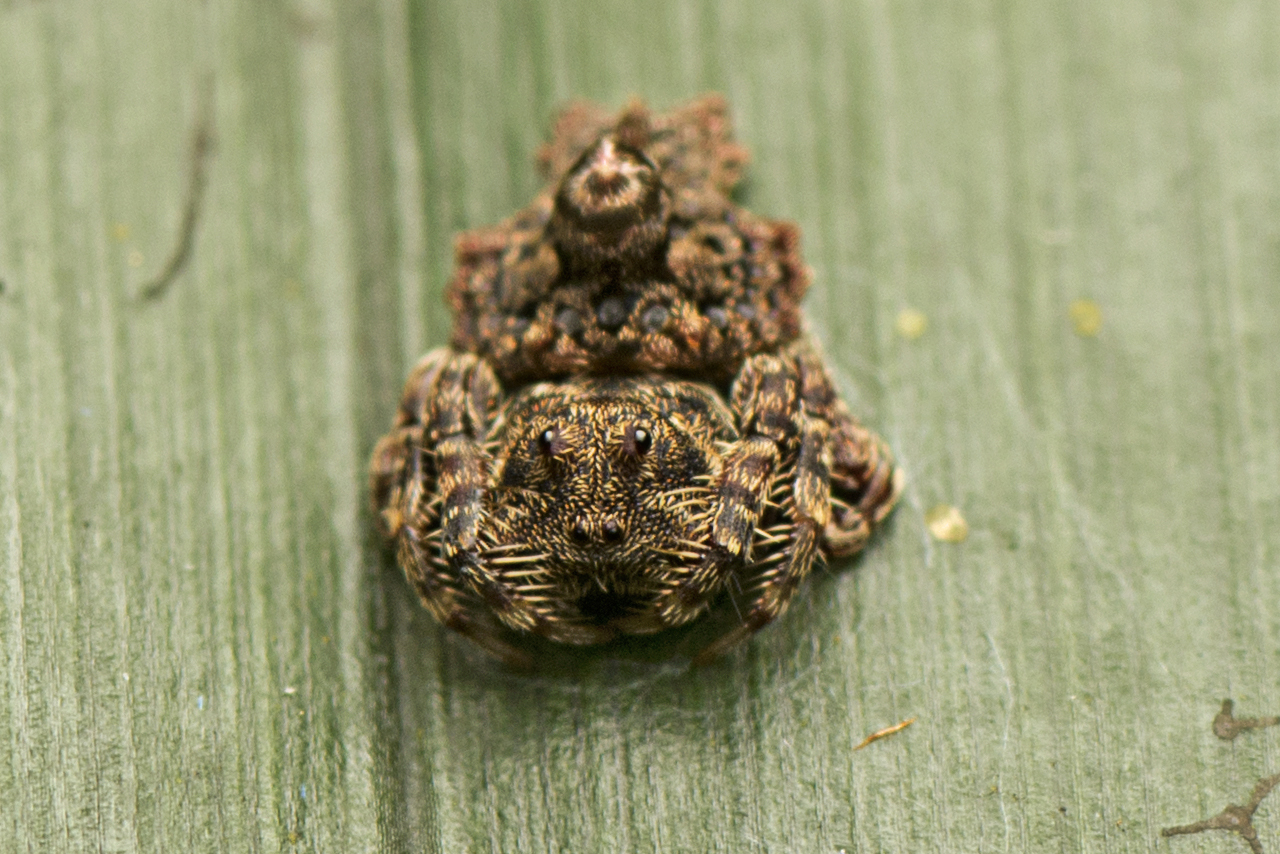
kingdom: Animalia
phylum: Arthropoda
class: Arachnida
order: Araneae
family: Arkyidae
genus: Arkys
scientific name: Arkys alticephala
